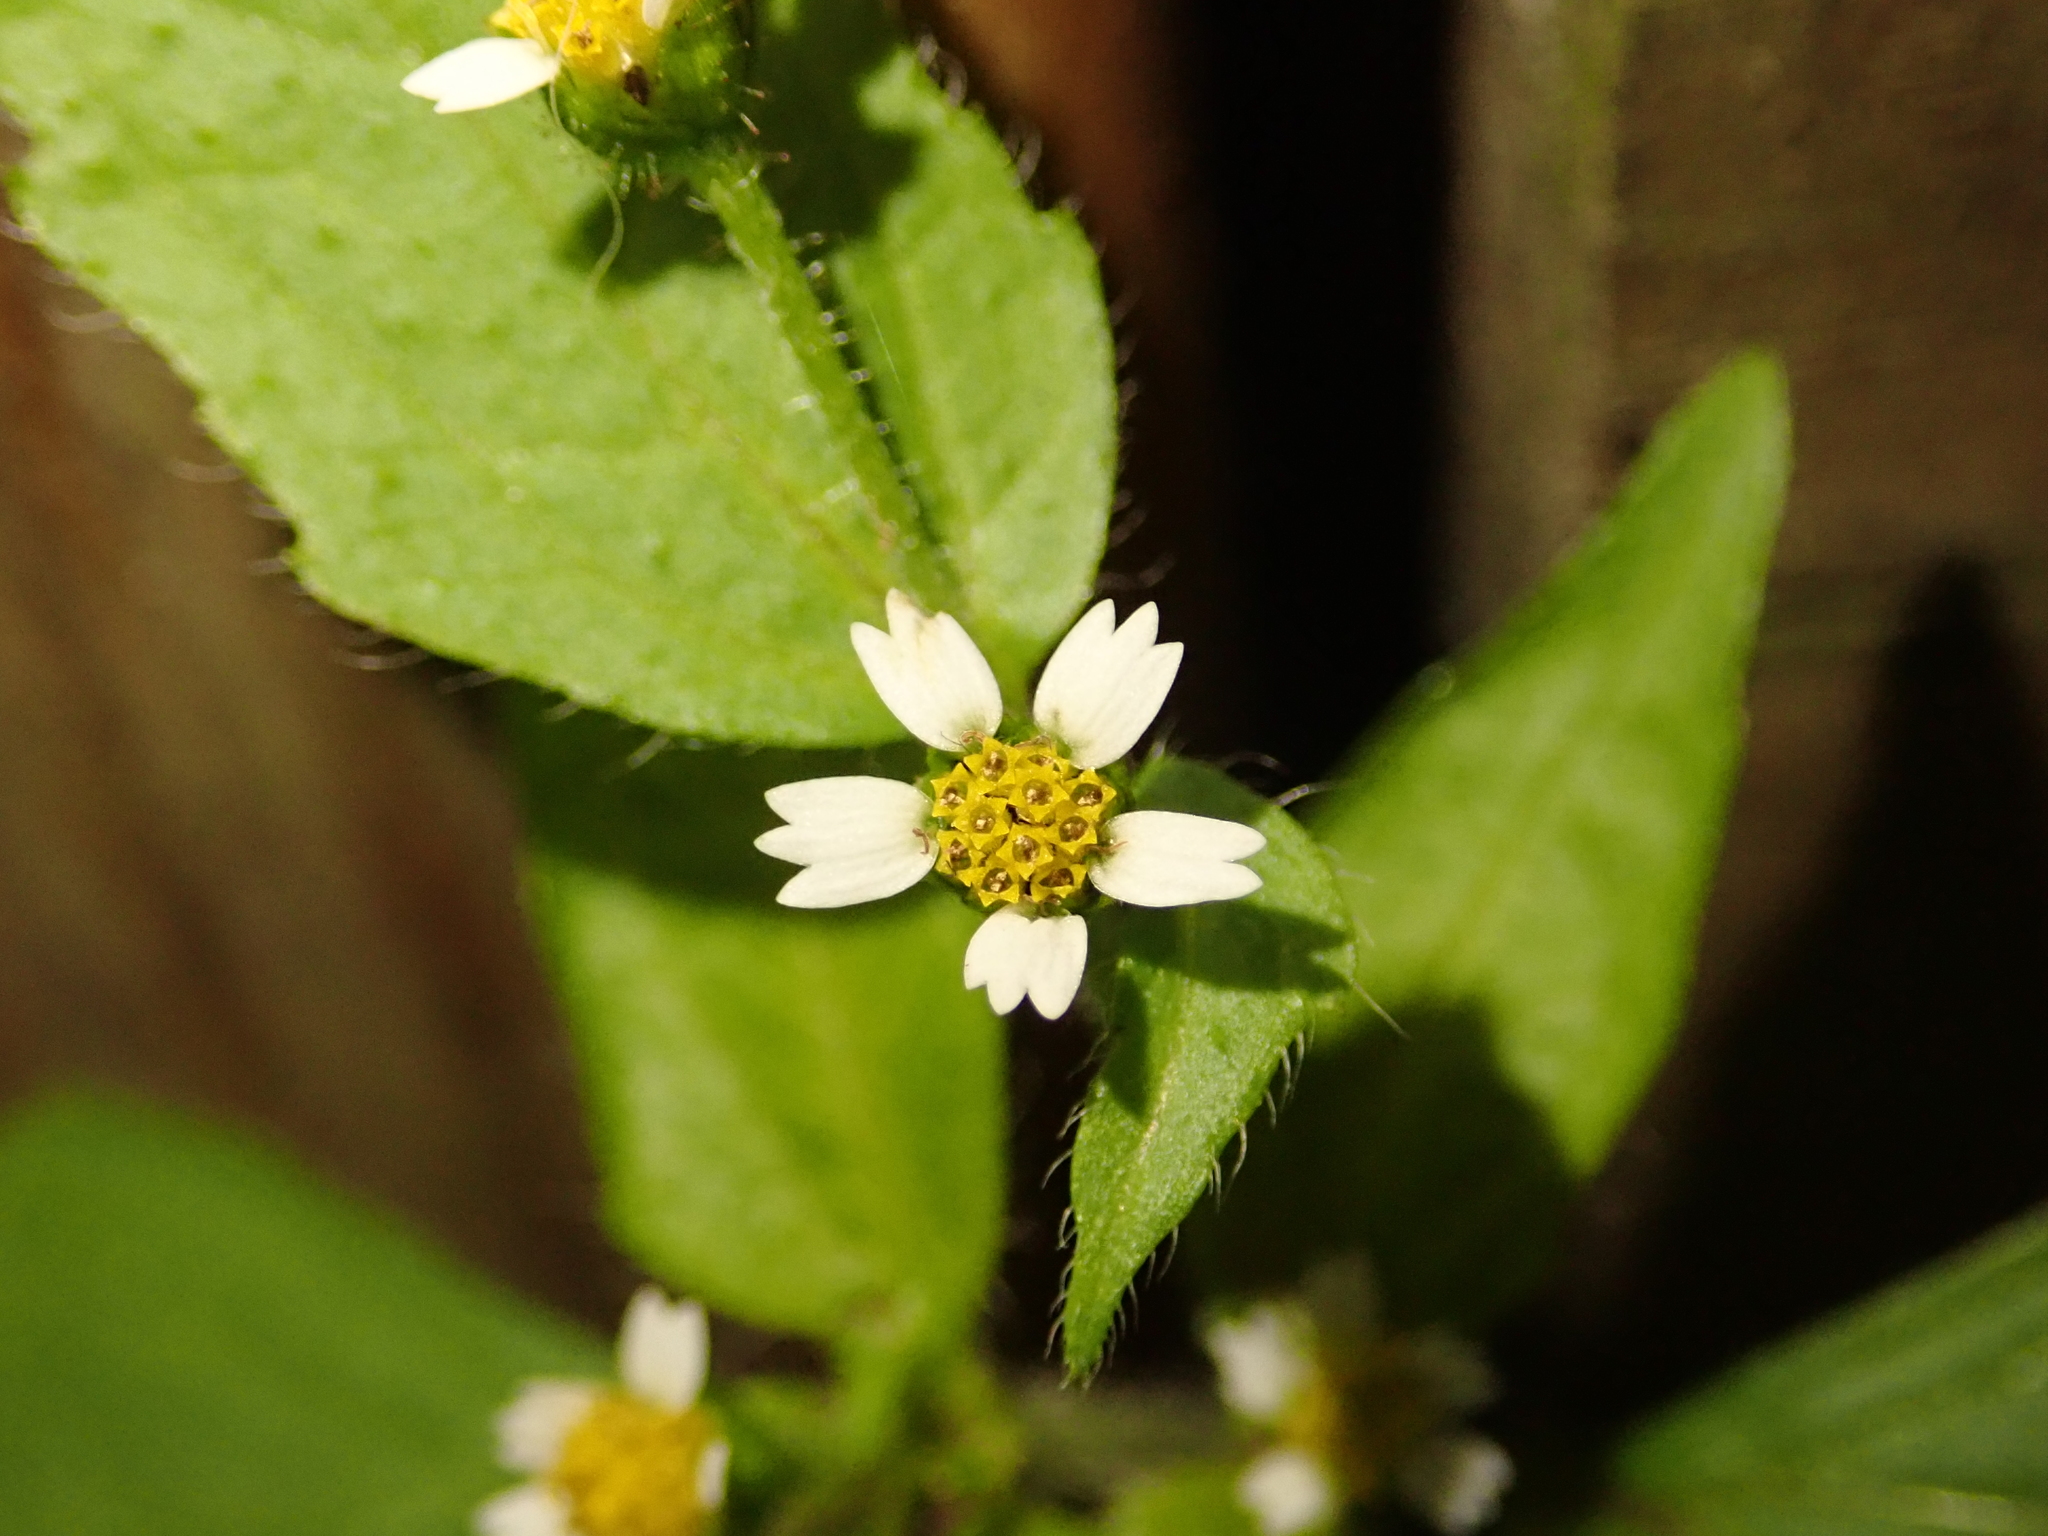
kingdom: Plantae
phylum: Tracheophyta
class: Magnoliopsida
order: Asterales
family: Asteraceae
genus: Galinsoga
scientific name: Galinsoga quadriradiata
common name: Shaggy soldier
